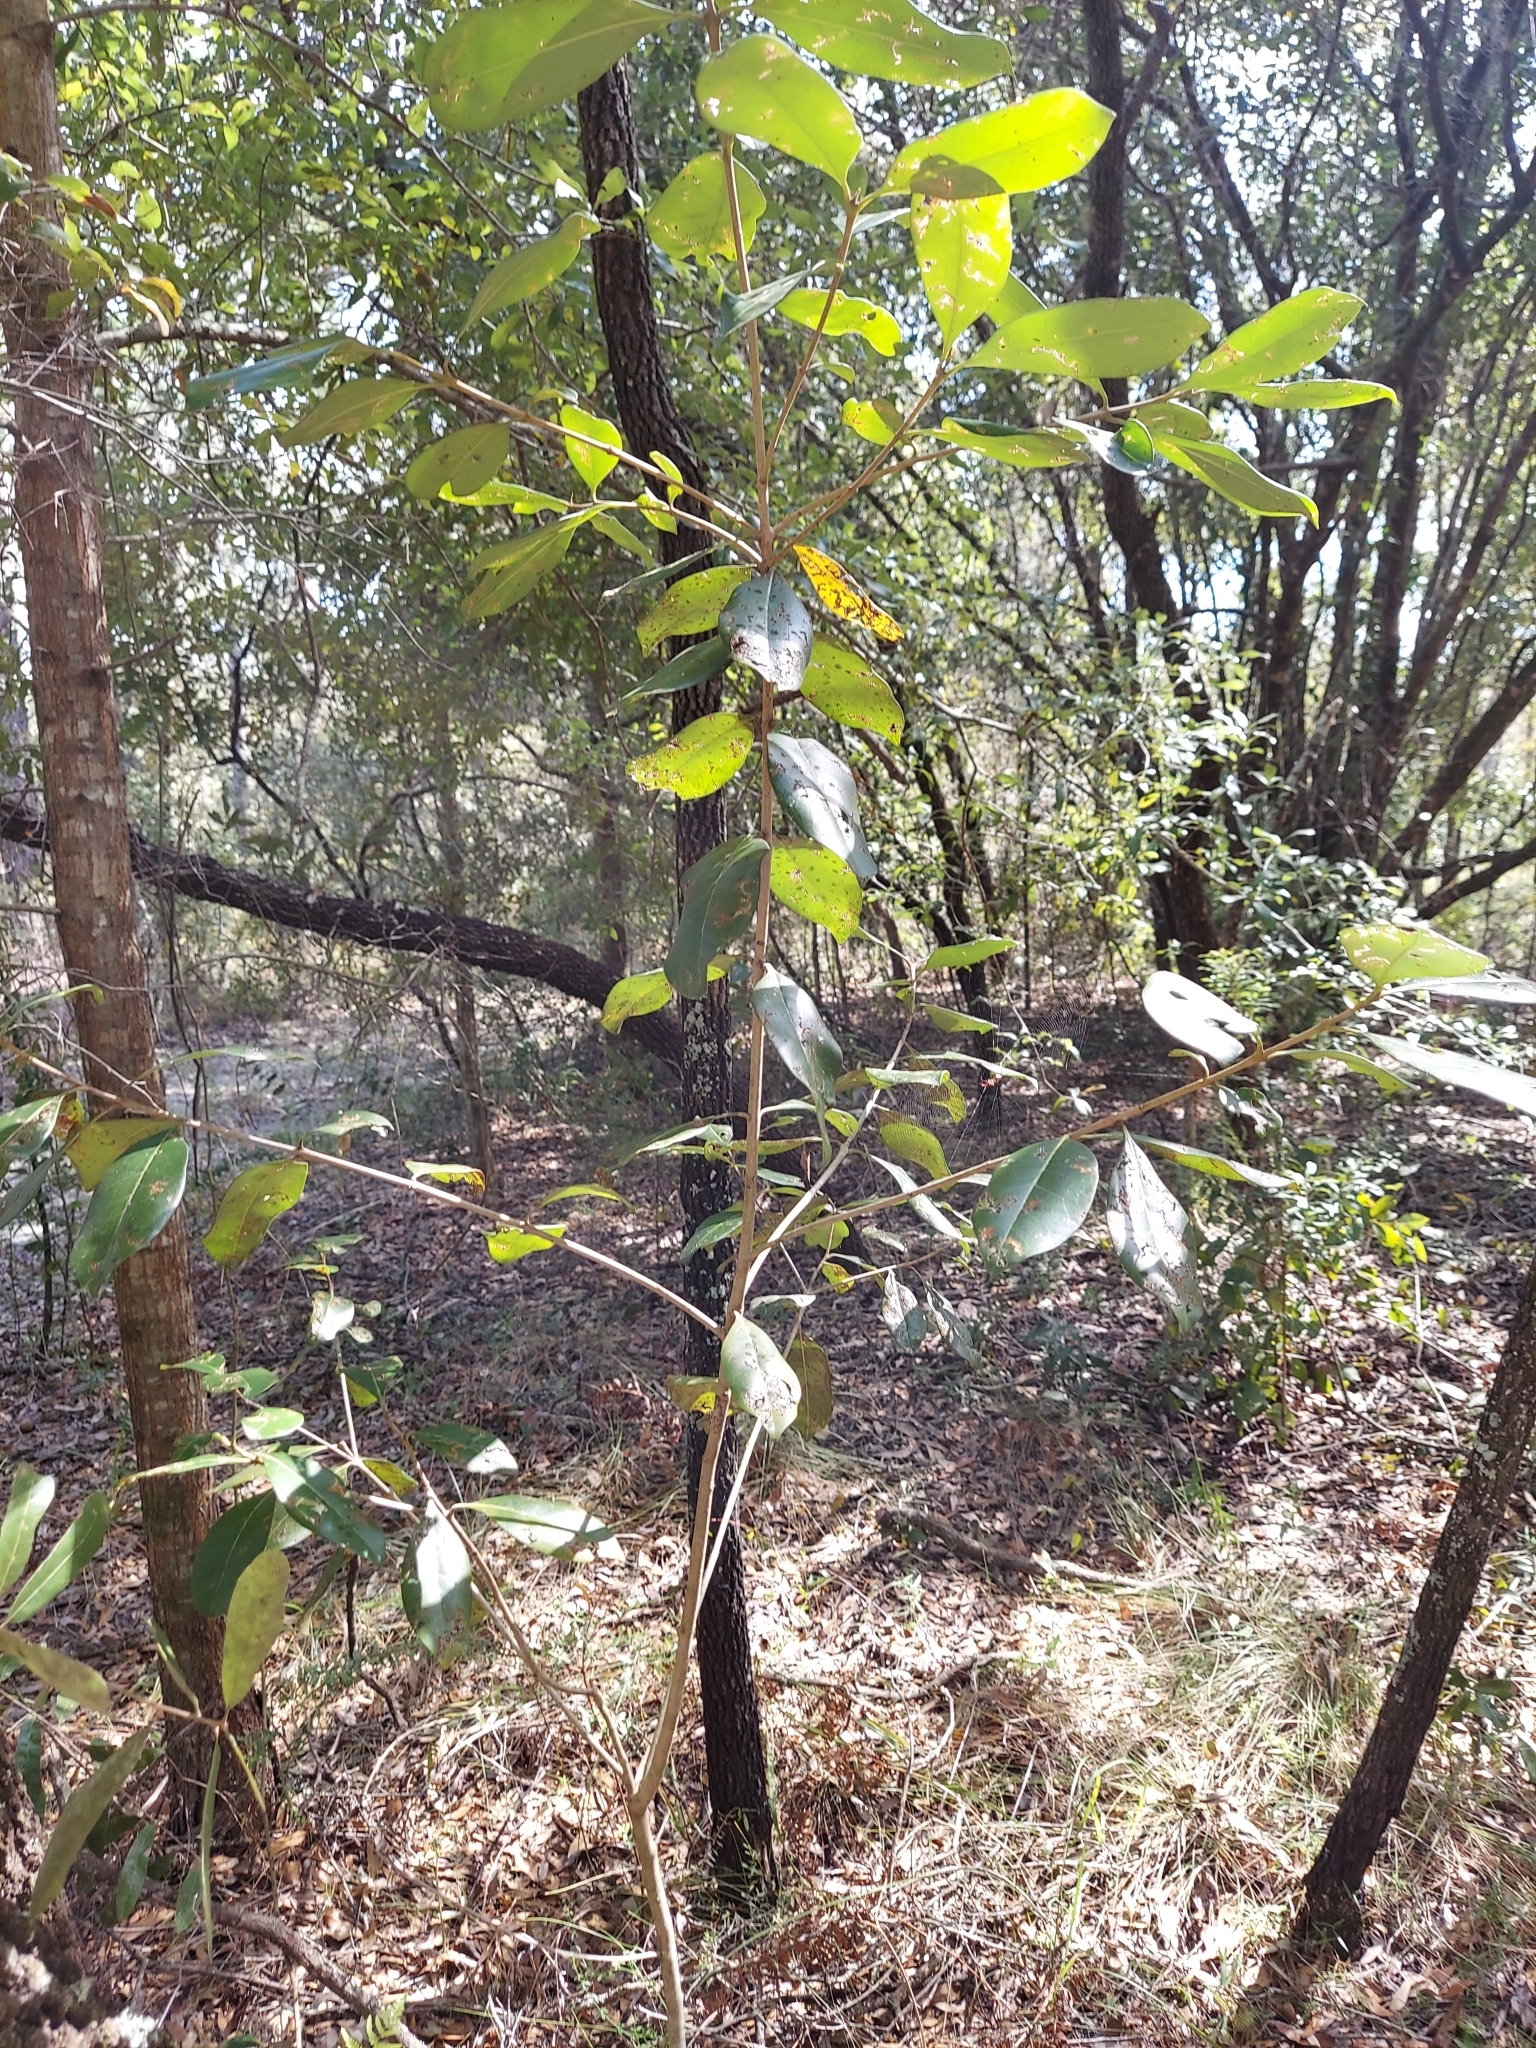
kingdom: Plantae
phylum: Tracheophyta
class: Magnoliopsida
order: Lamiales
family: Oleaceae
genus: Cartrema
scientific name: Cartrema americana
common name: Devilwood
